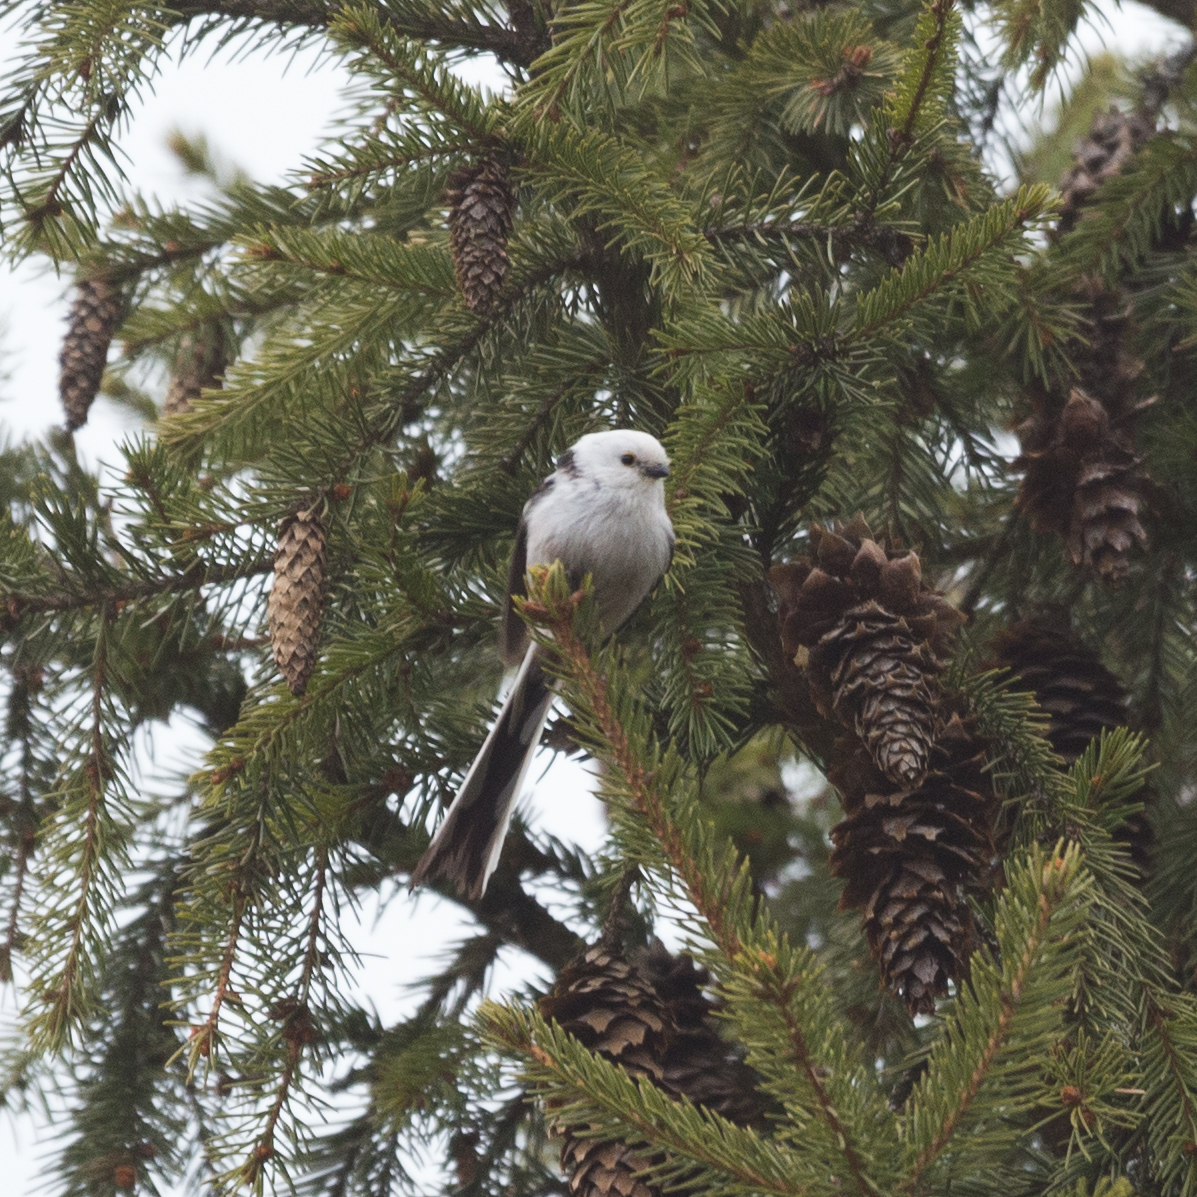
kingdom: Animalia
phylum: Chordata
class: Aves
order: Passeriformes
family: Aegithalidae
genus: Aegithalos
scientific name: Aegithalos caudatus
